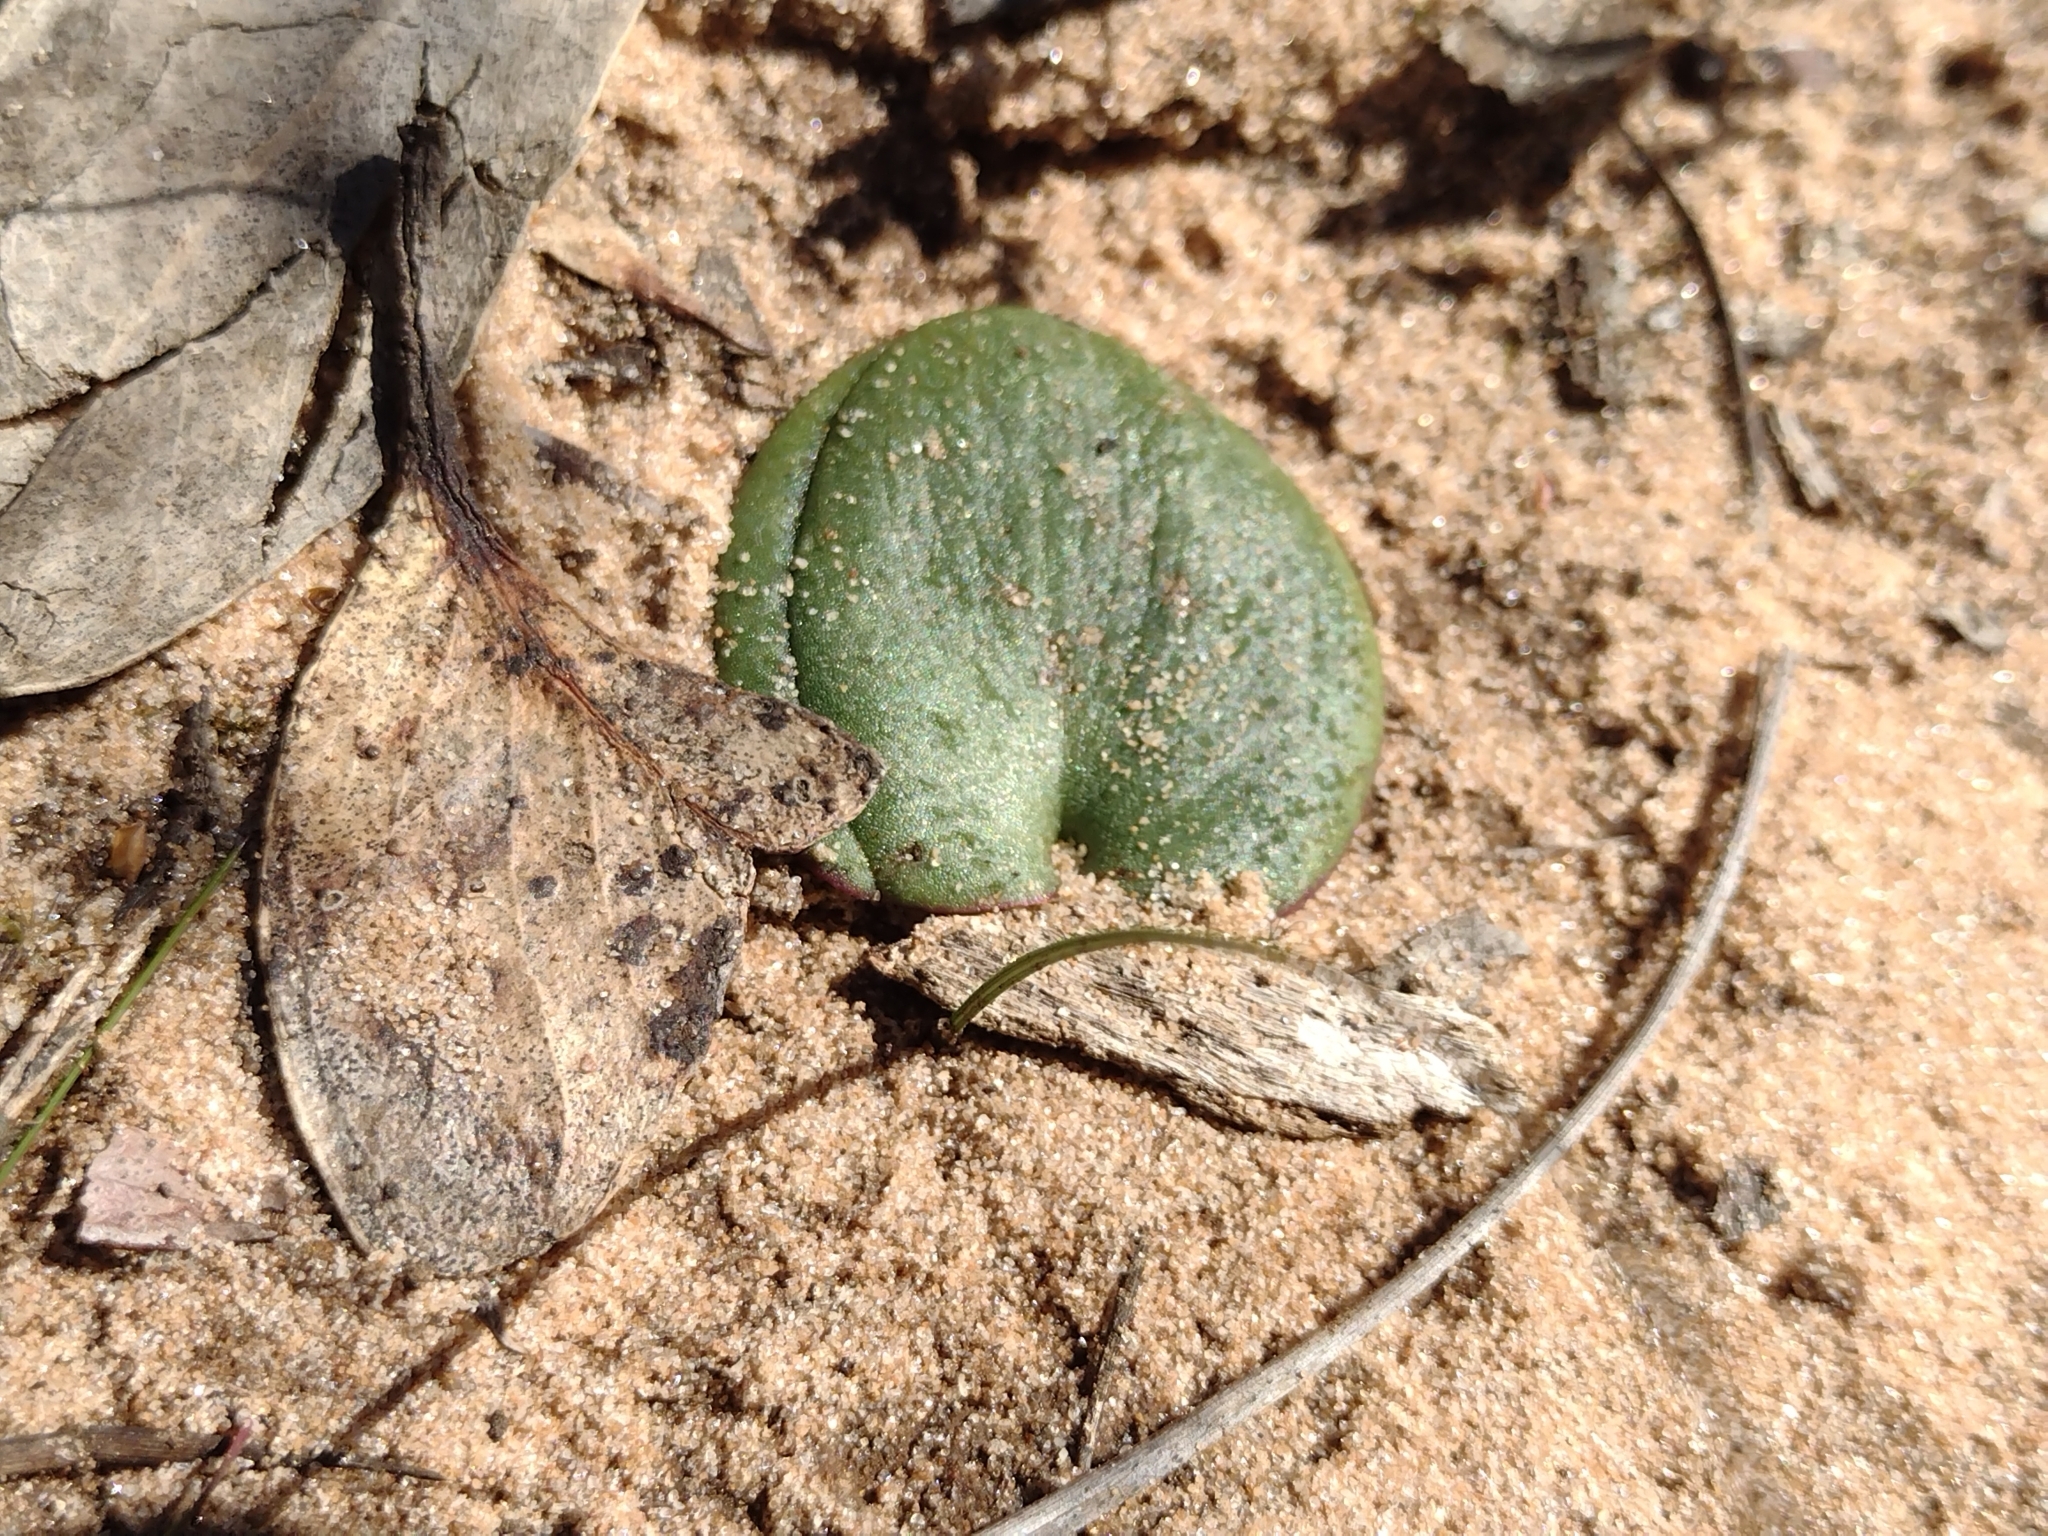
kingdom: Plantae
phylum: Tracheophyta
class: Liliopsida
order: Asparagales
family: Orchidaceae
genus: Pyrorchis
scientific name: Pyrorchis nigricans
